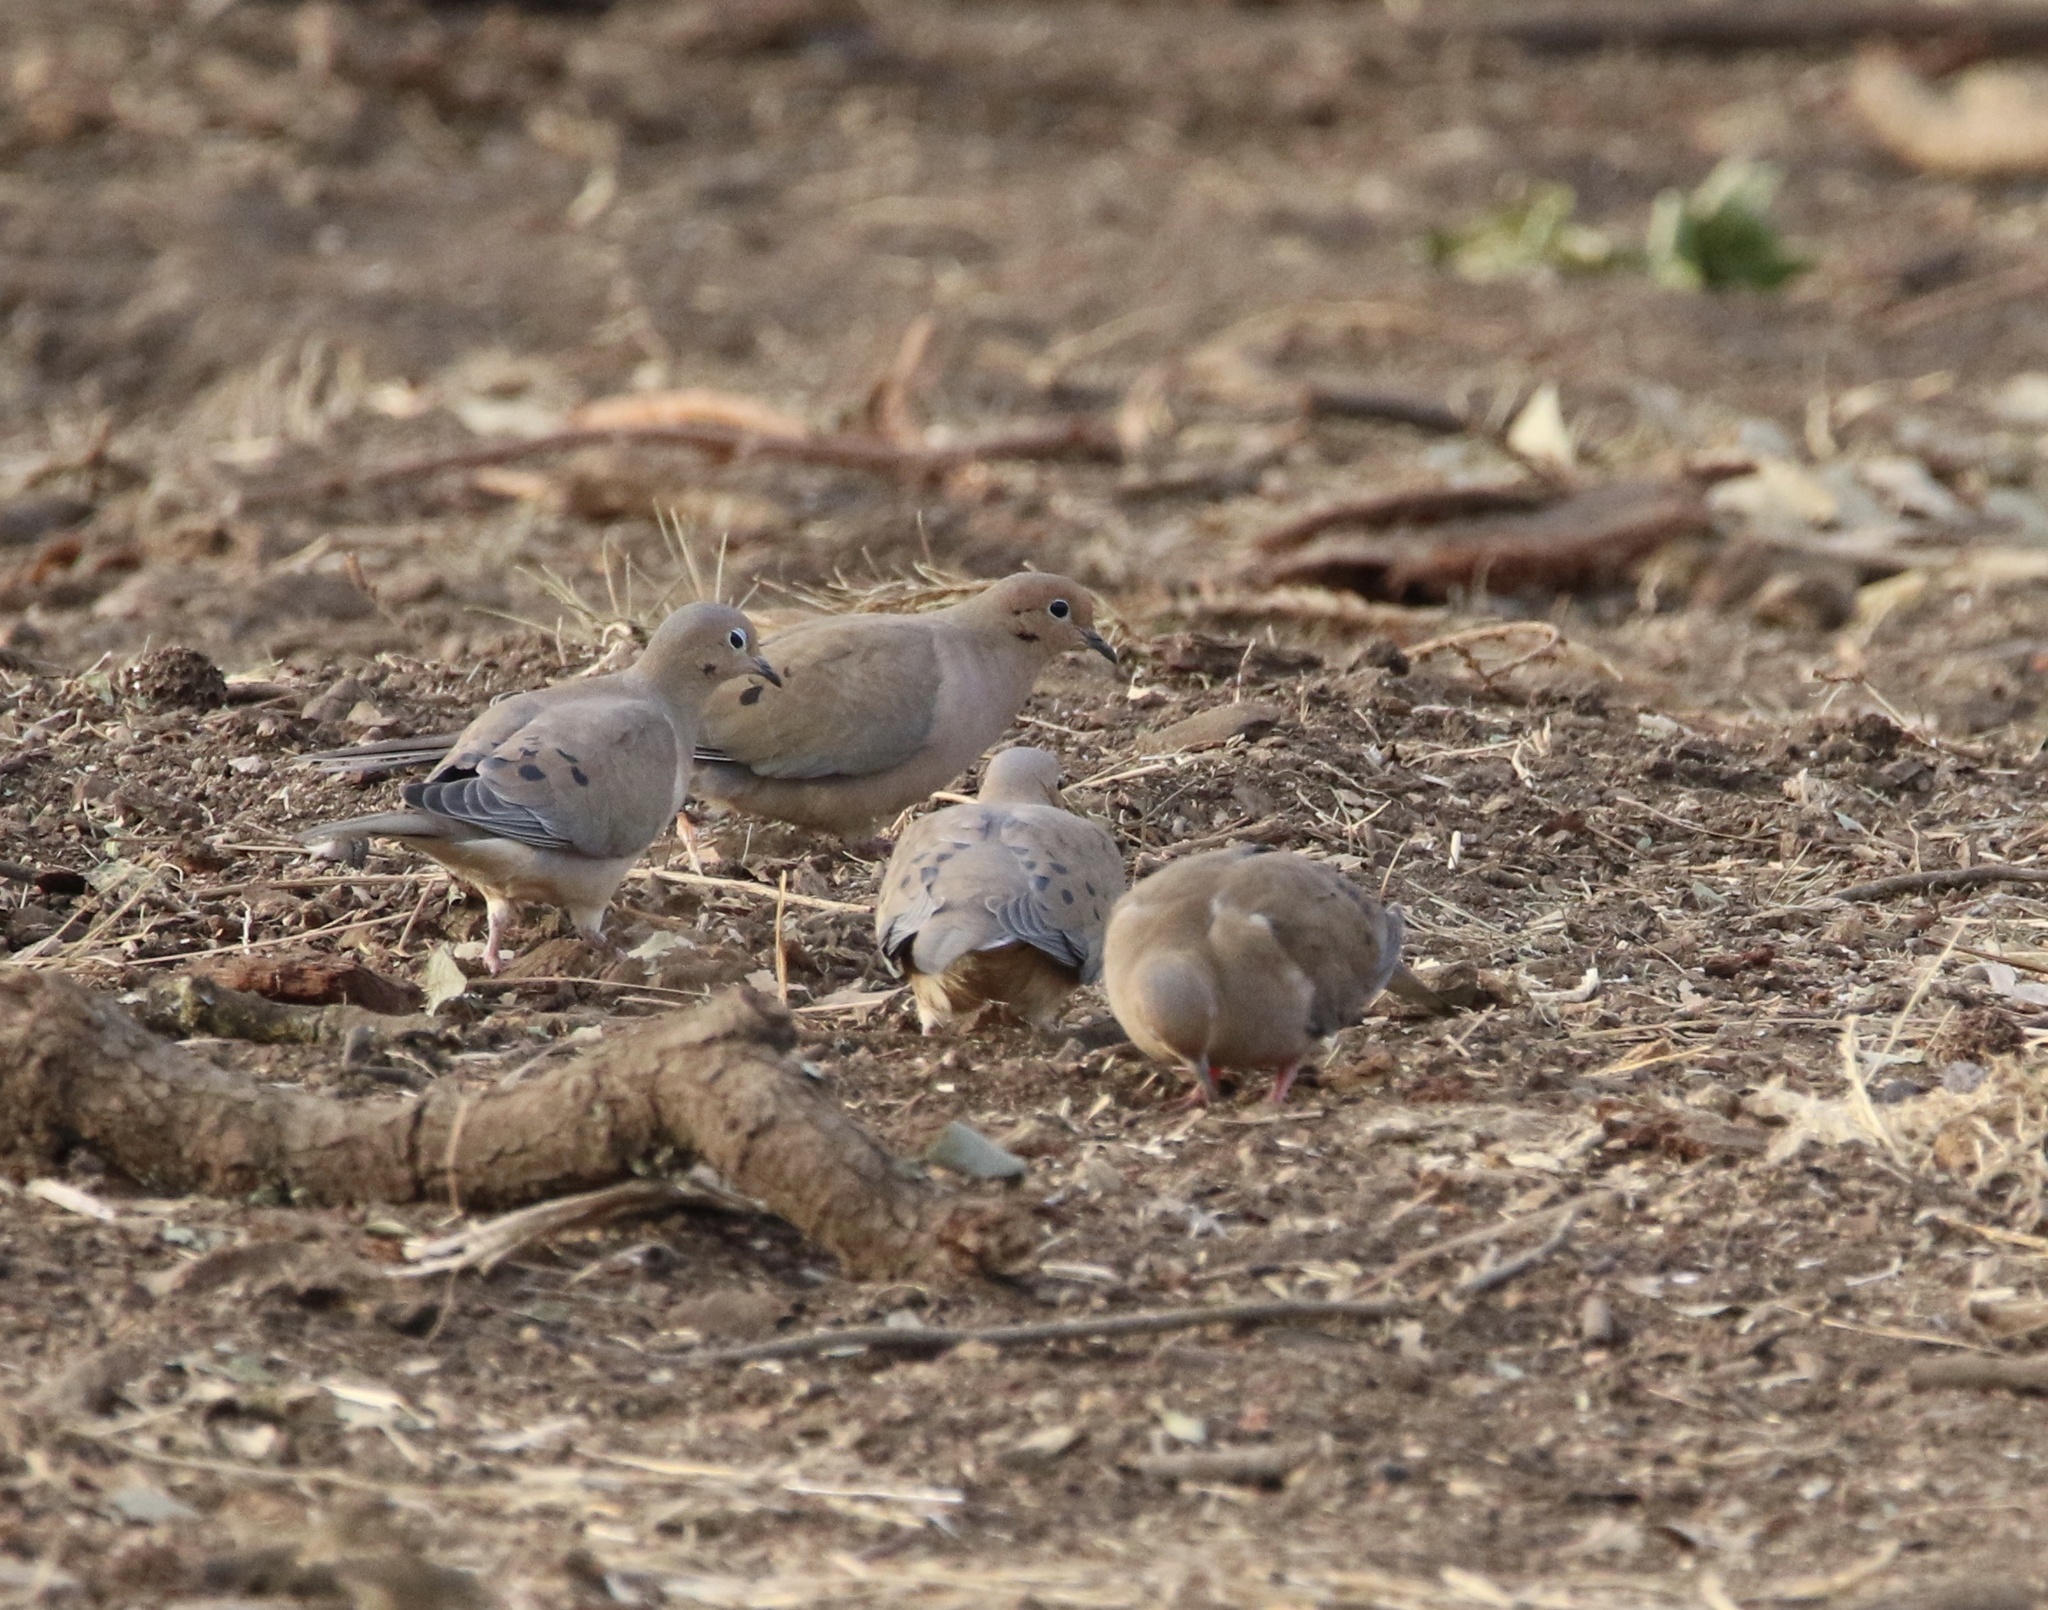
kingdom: Animalia
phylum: Chordata
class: Aves
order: Columbiformes
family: Columbidae
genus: Zenaida
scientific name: Zenaida macroura
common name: Mourning dove
